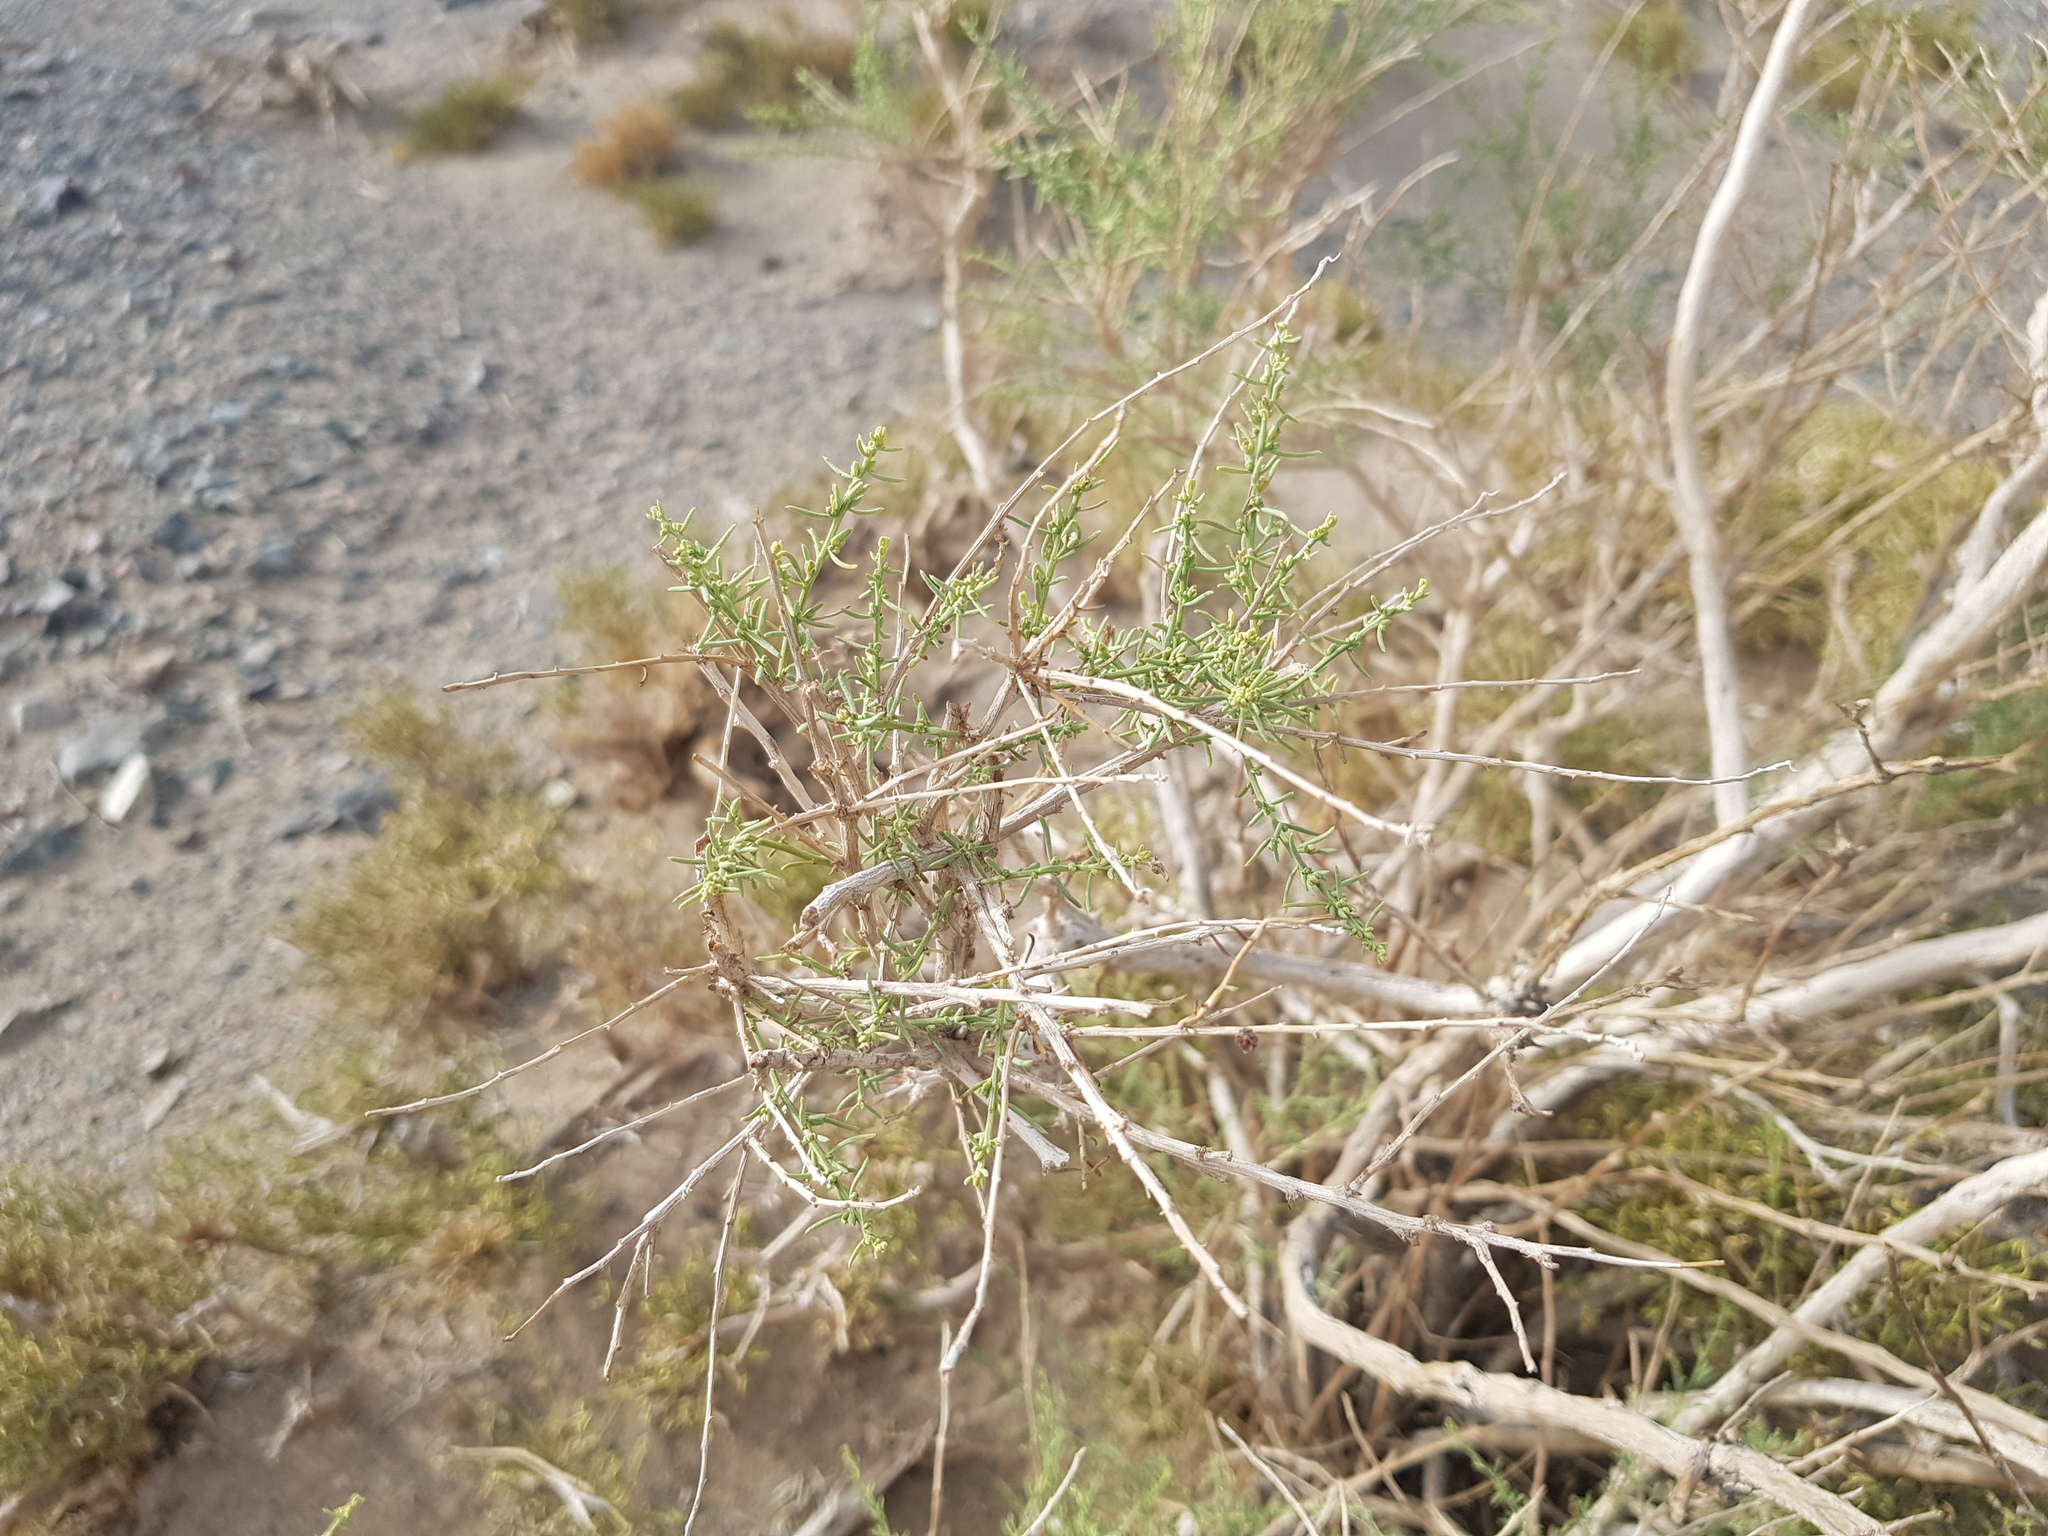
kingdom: Plantae
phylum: Tracheophyta
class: Magnoliopsida
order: Caryophyllales
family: Amaranthaceae
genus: Sympegma
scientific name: Sympegma regelii
